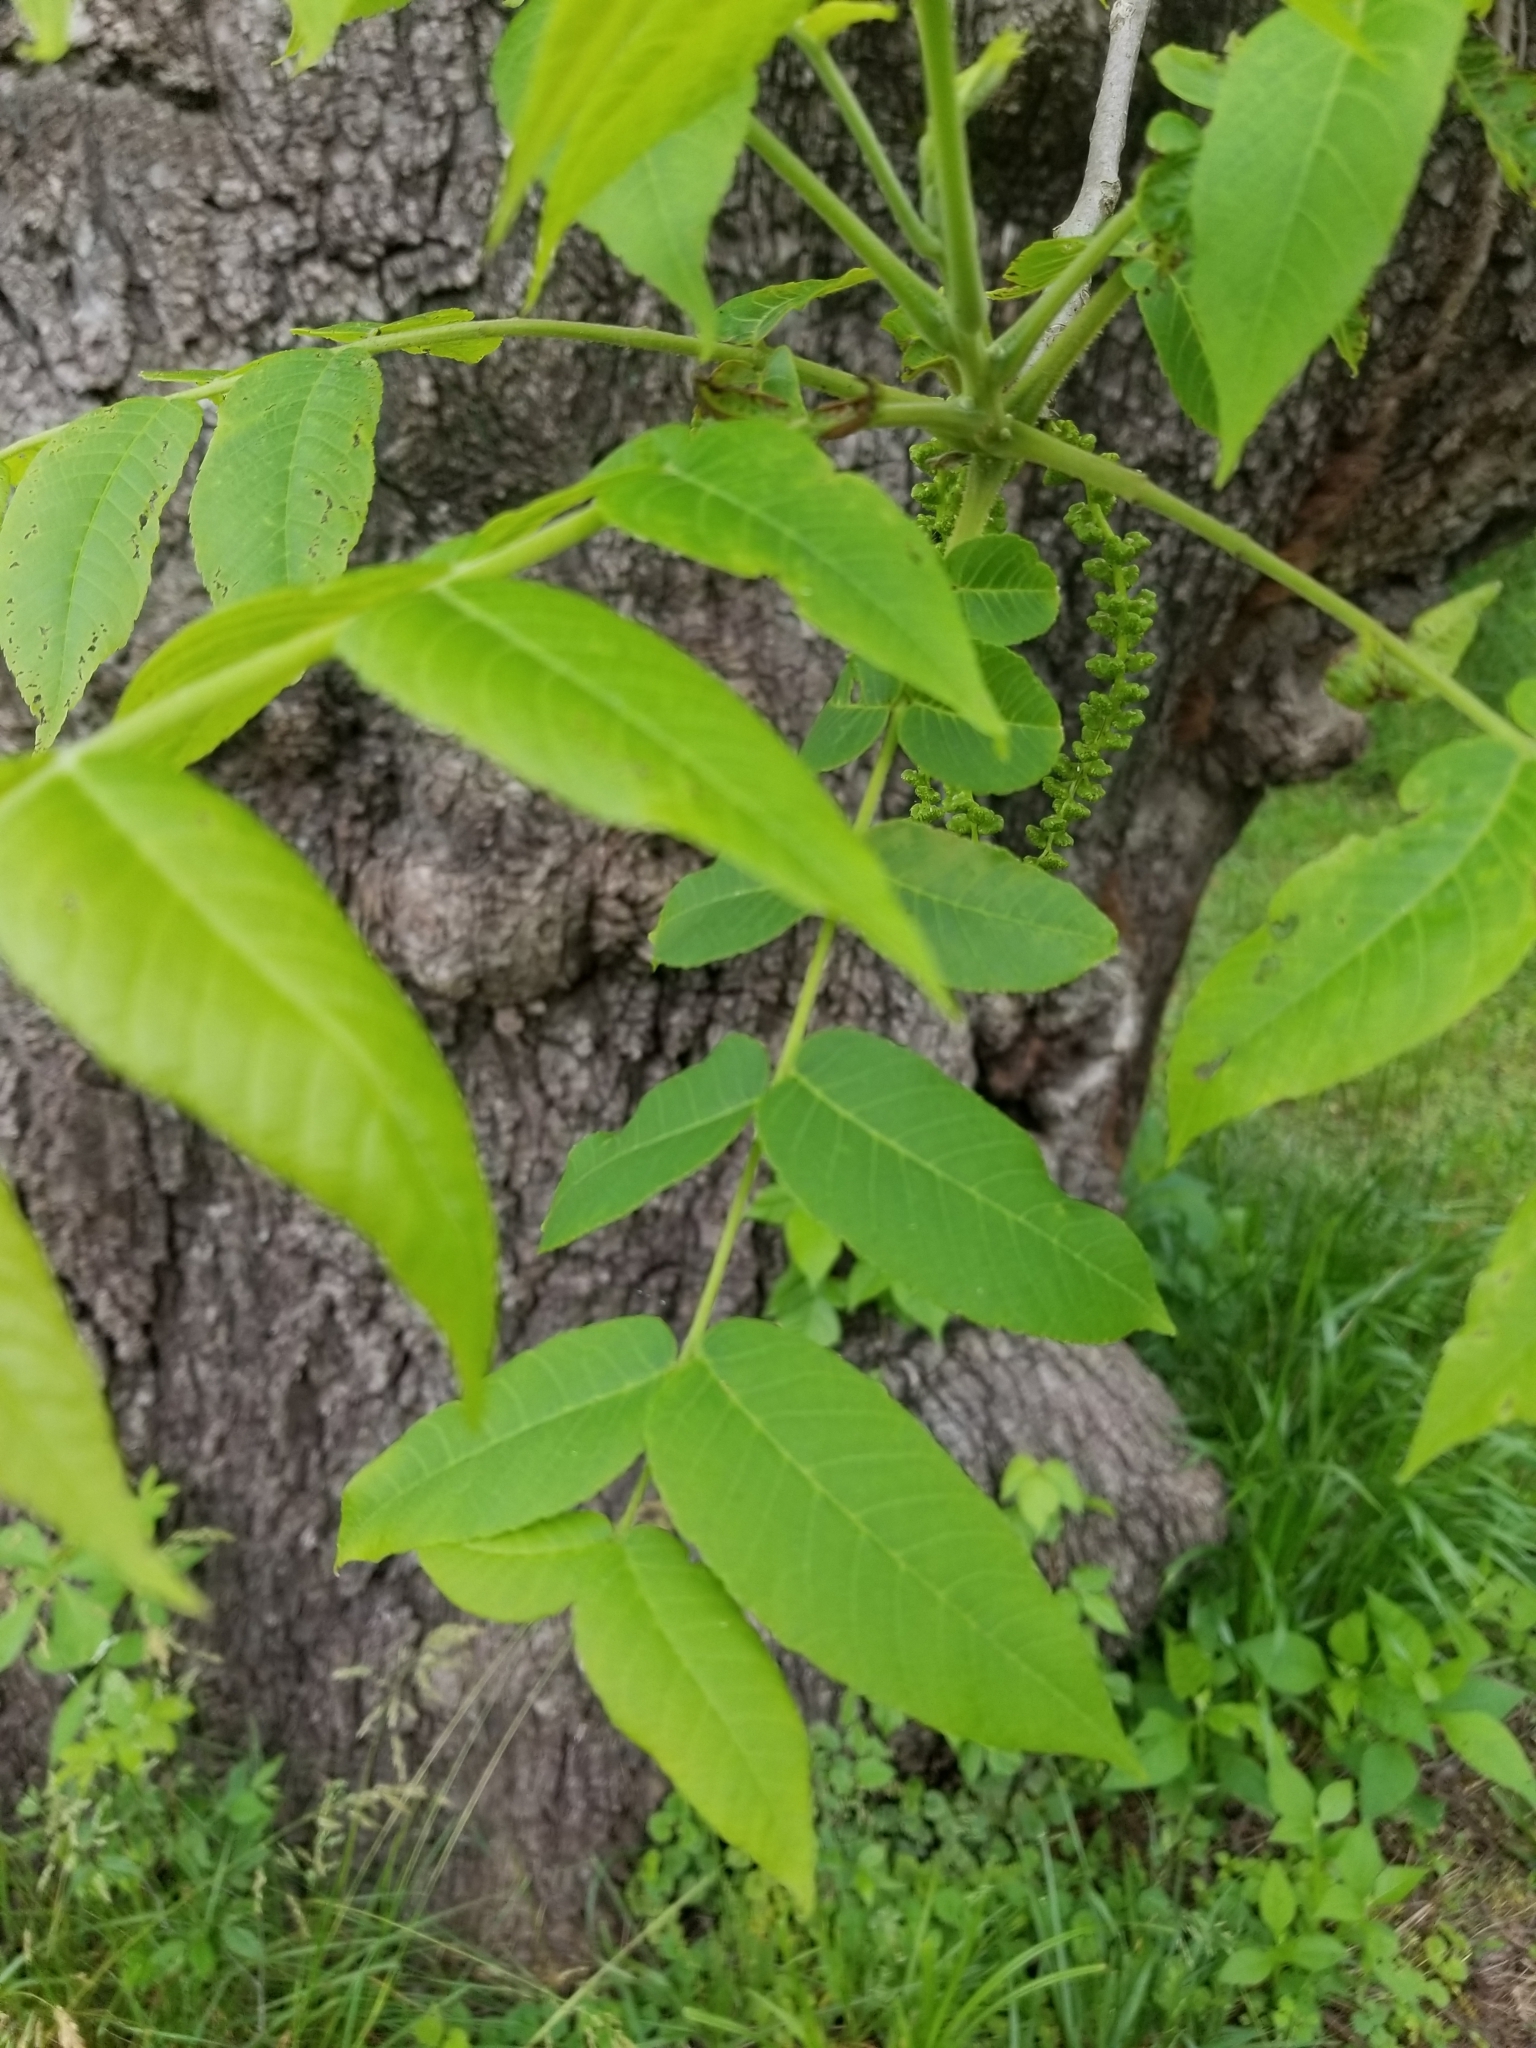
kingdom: Plantae
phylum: Tracheophyta
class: Magnoliopsida
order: Fagales
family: Juglandaceae
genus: Juglans
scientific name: Juglans nigra
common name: Black walnut
